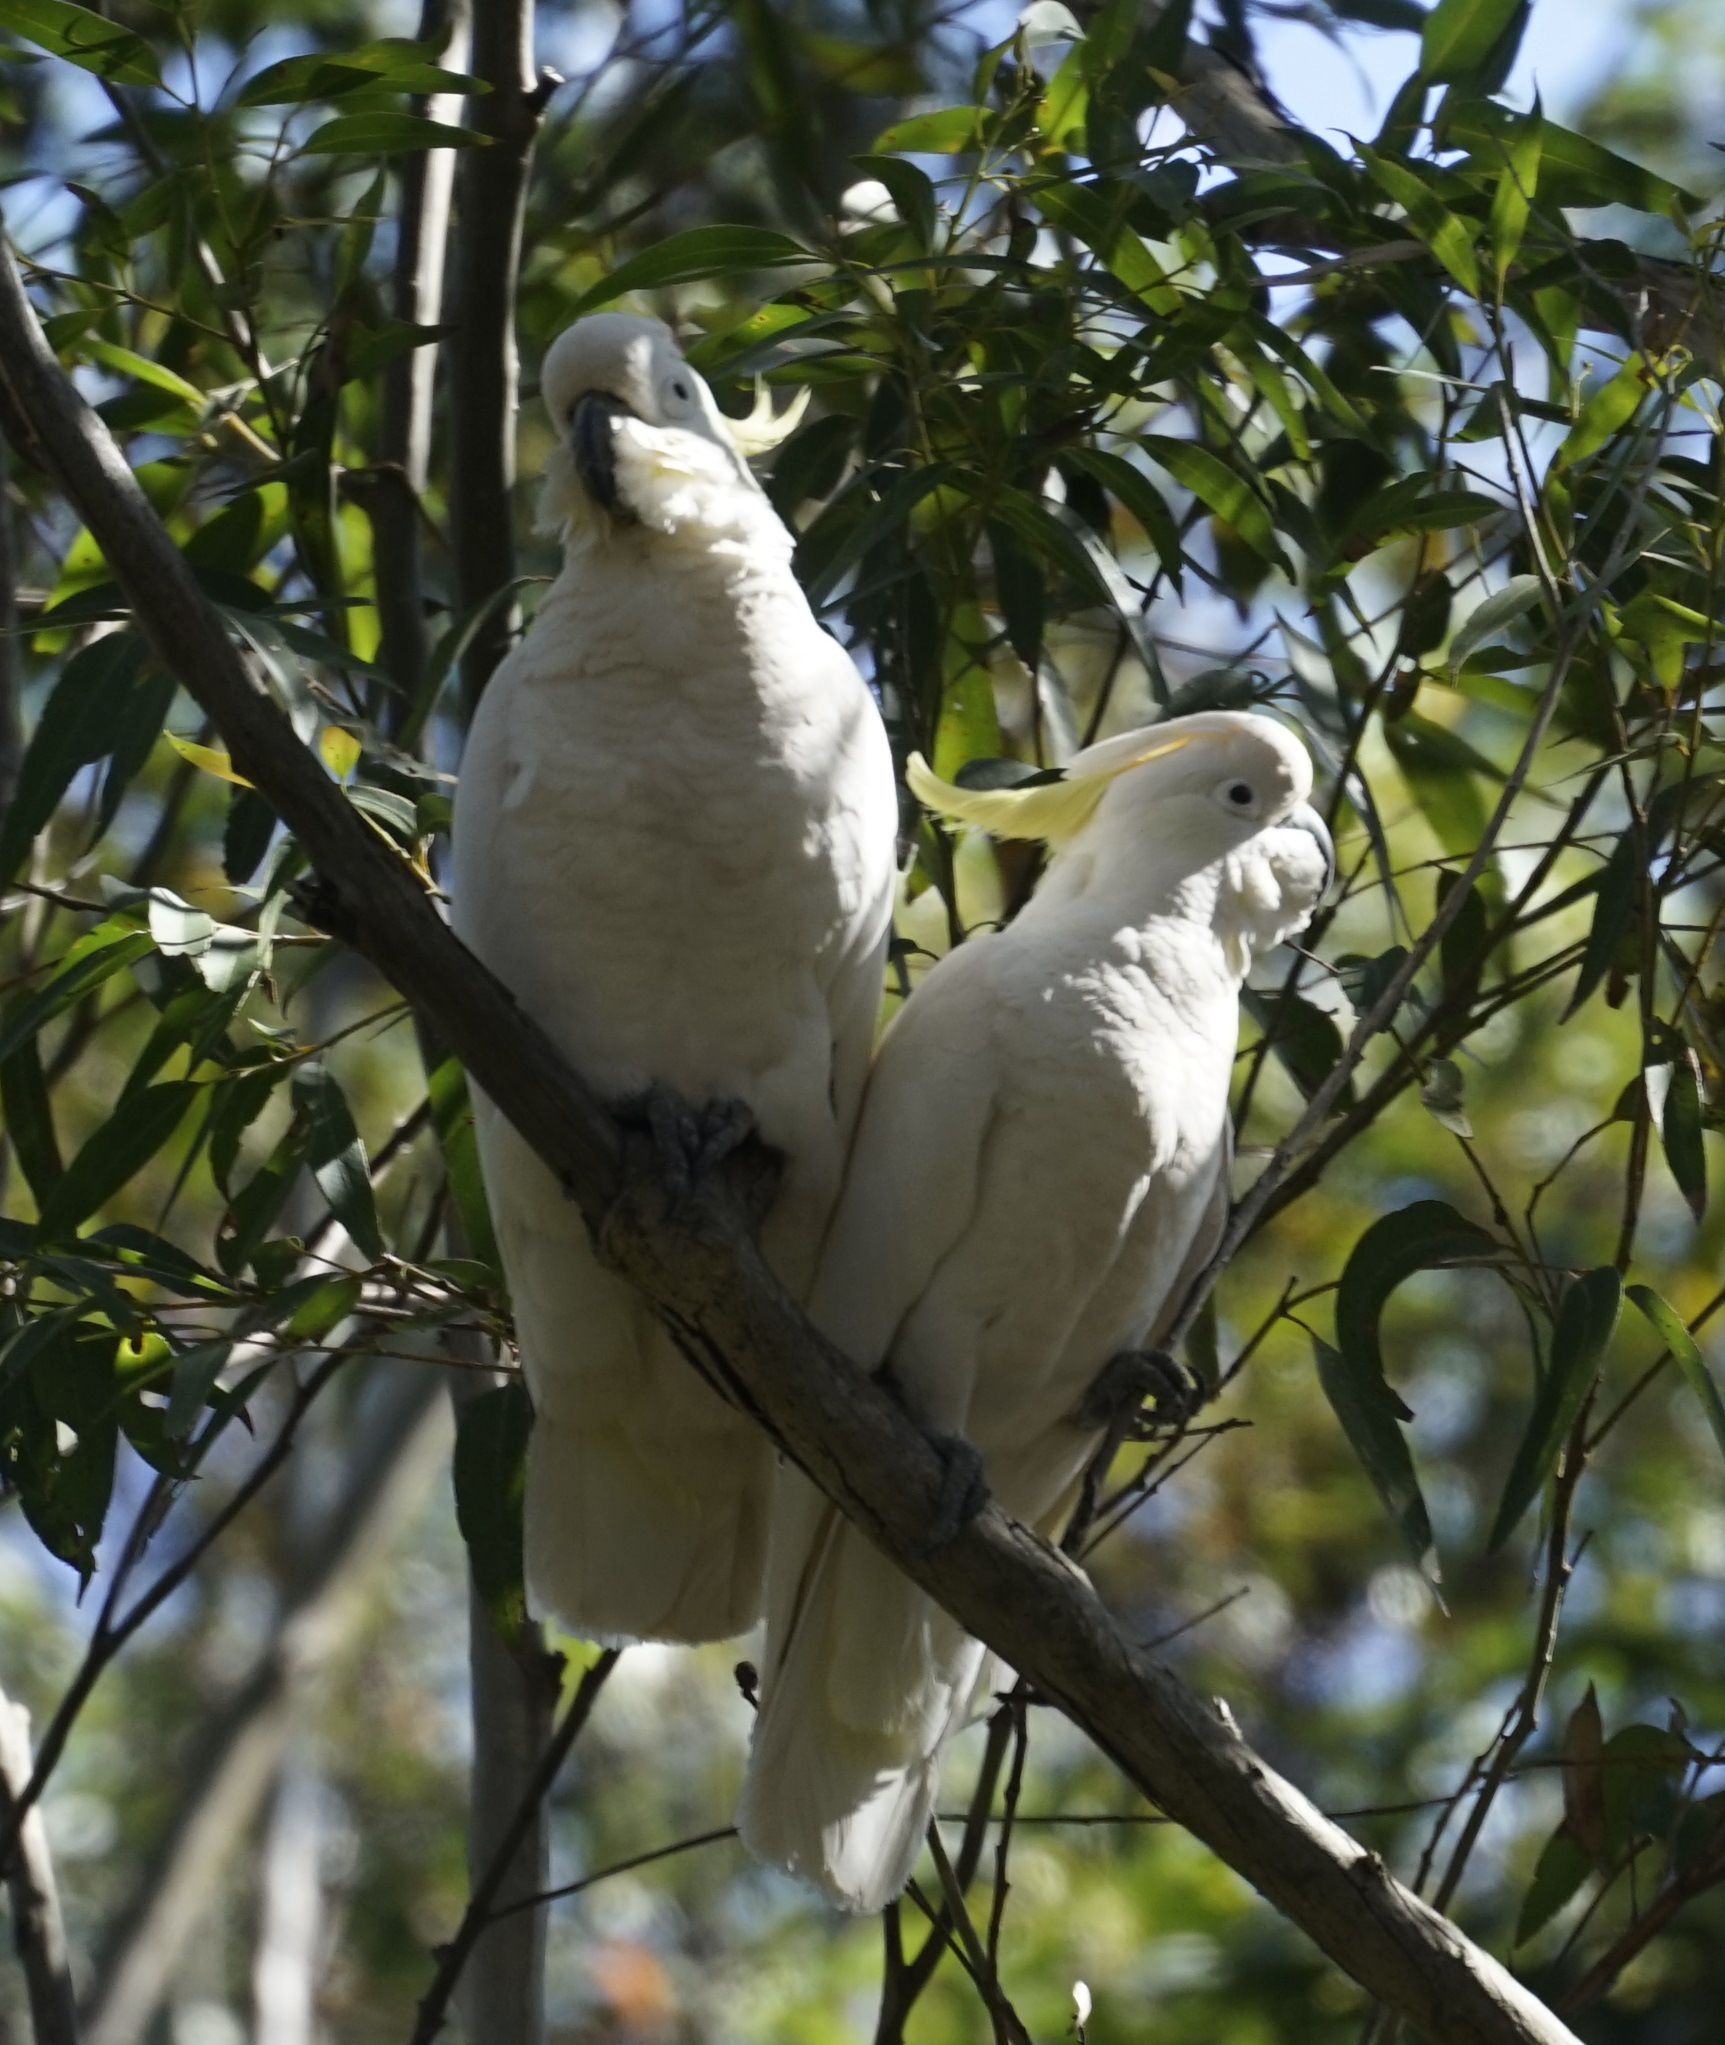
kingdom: Animalia
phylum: Chordata
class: Aves
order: Psittaciformes
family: Psittacidae
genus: Cacatua
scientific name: Cacatua galerita
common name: Sulphur-crested cockatoo
